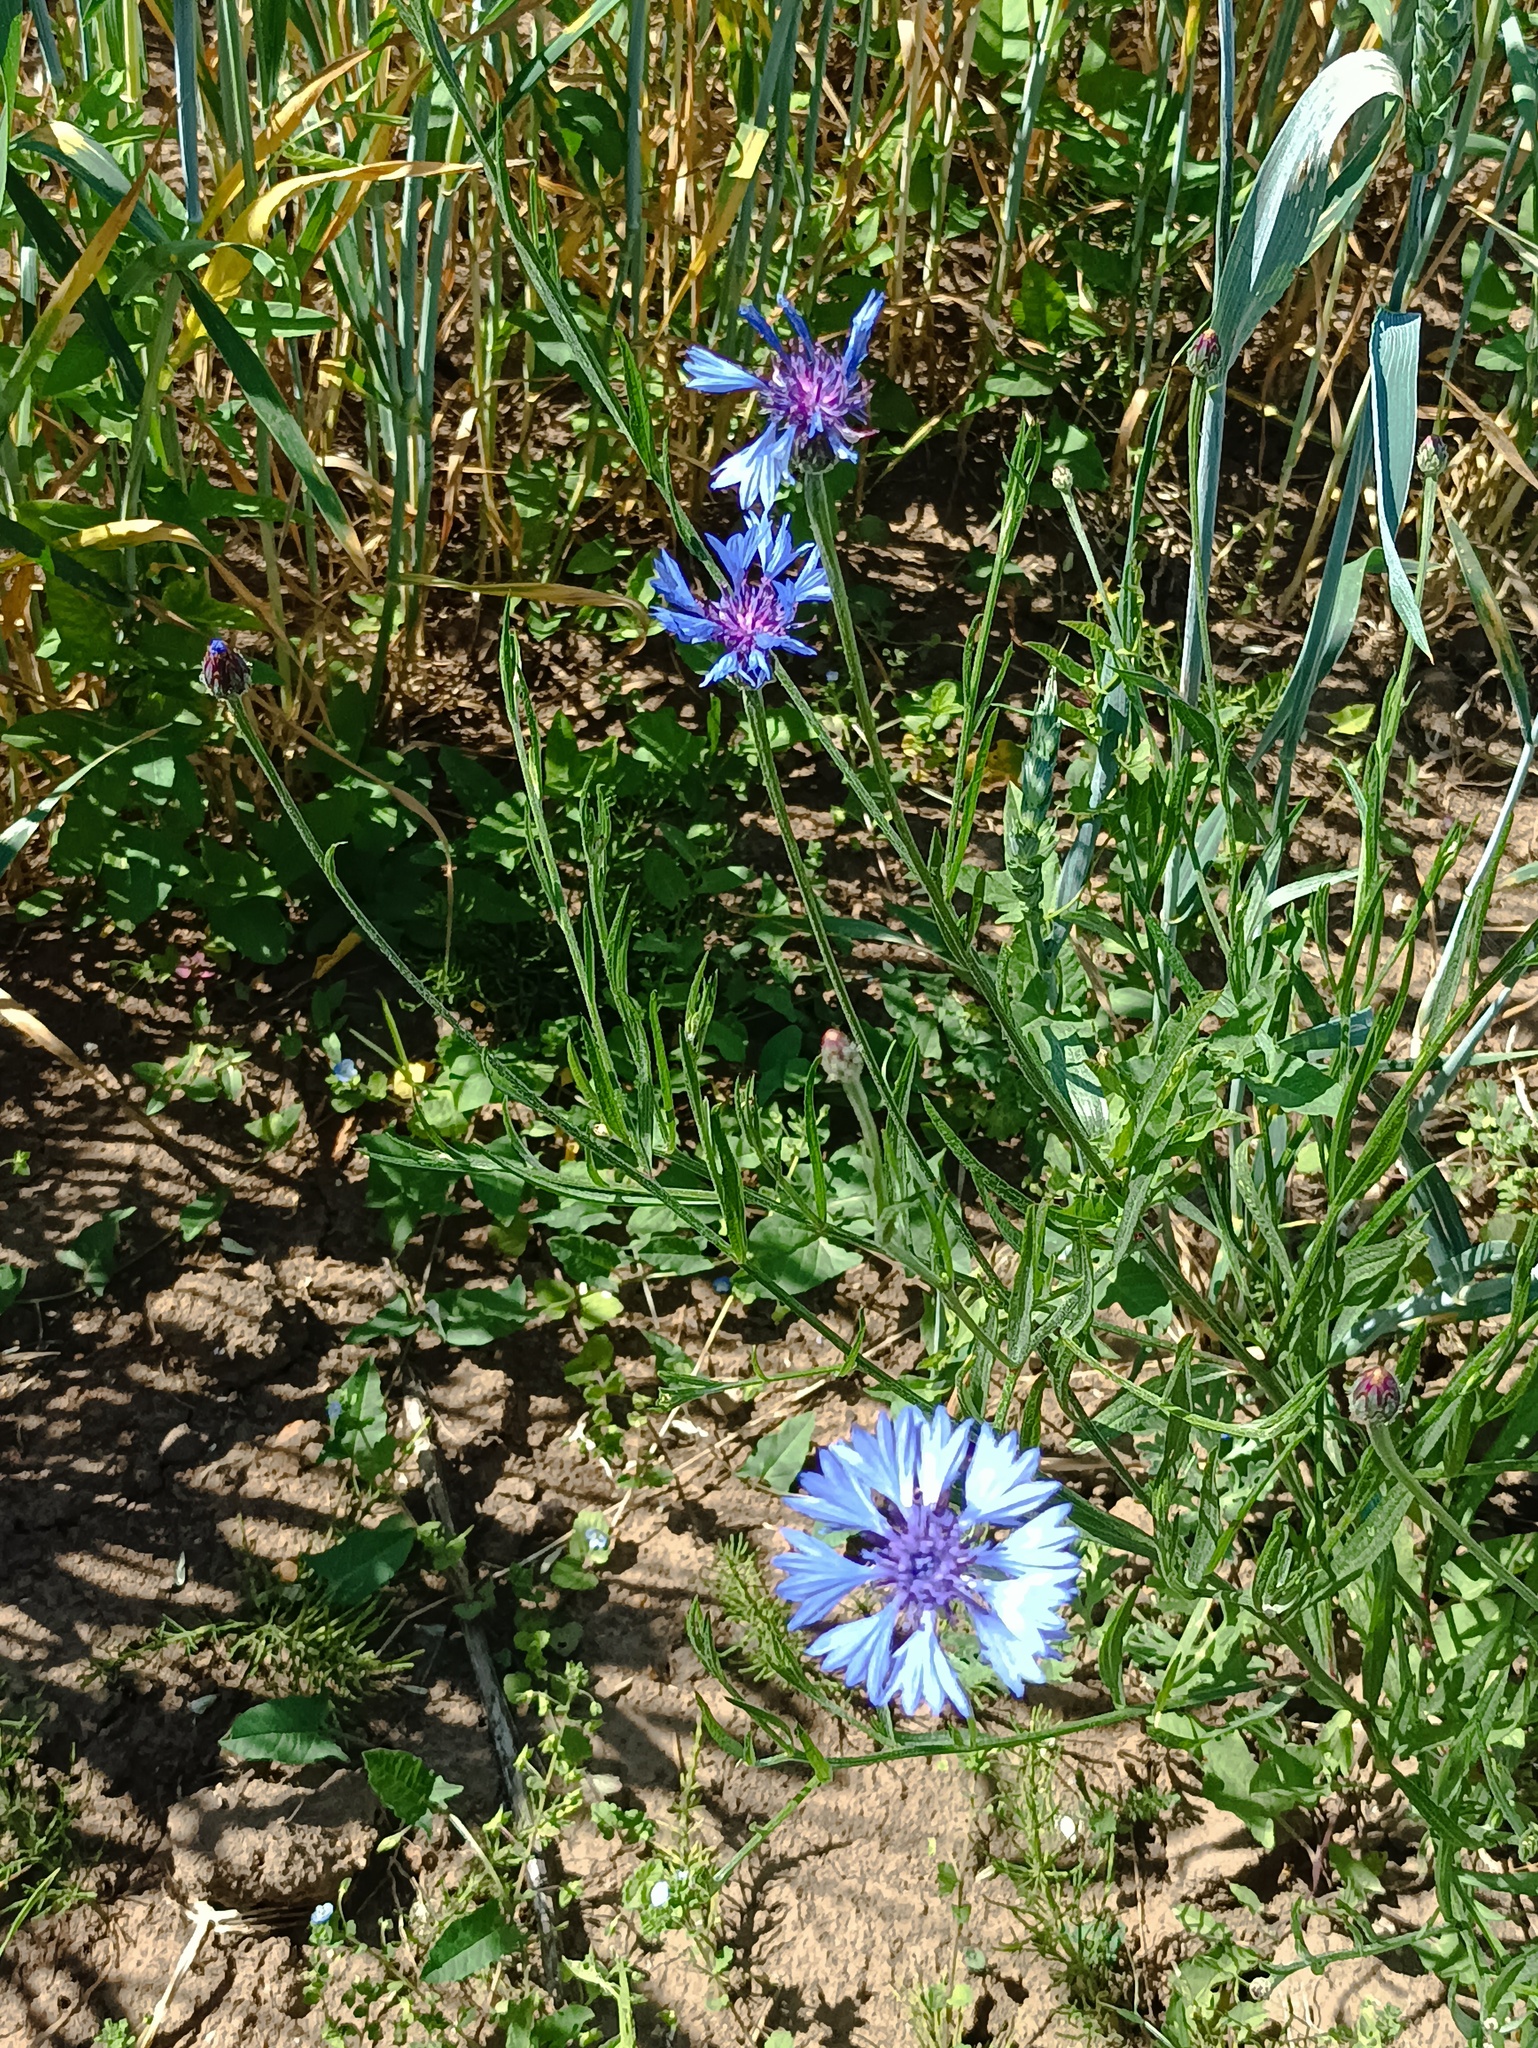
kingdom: Plantae
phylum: Tracheophyta
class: Magnoliopsida
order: Asterales
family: Asteraceae
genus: Centaurea
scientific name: Centaurea cyanus
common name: Cornflower
